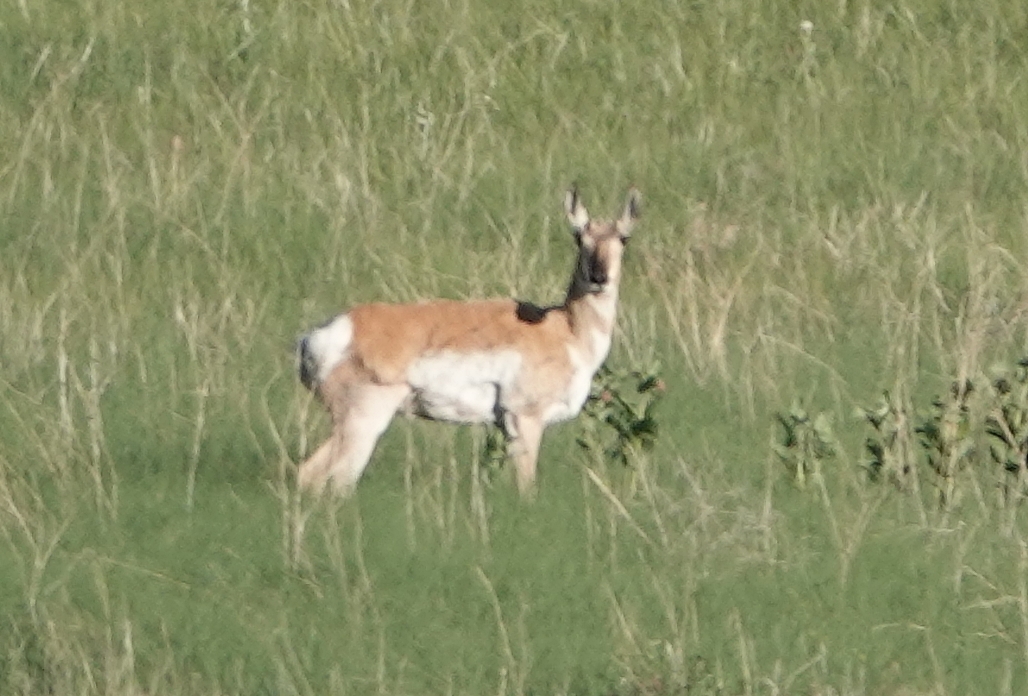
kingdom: Animalia
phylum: Chordata
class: Mammalia
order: Artiodactyla
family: Antilocapridae
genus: Antilocapra
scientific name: Antilocapra americana
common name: Pronghorn
